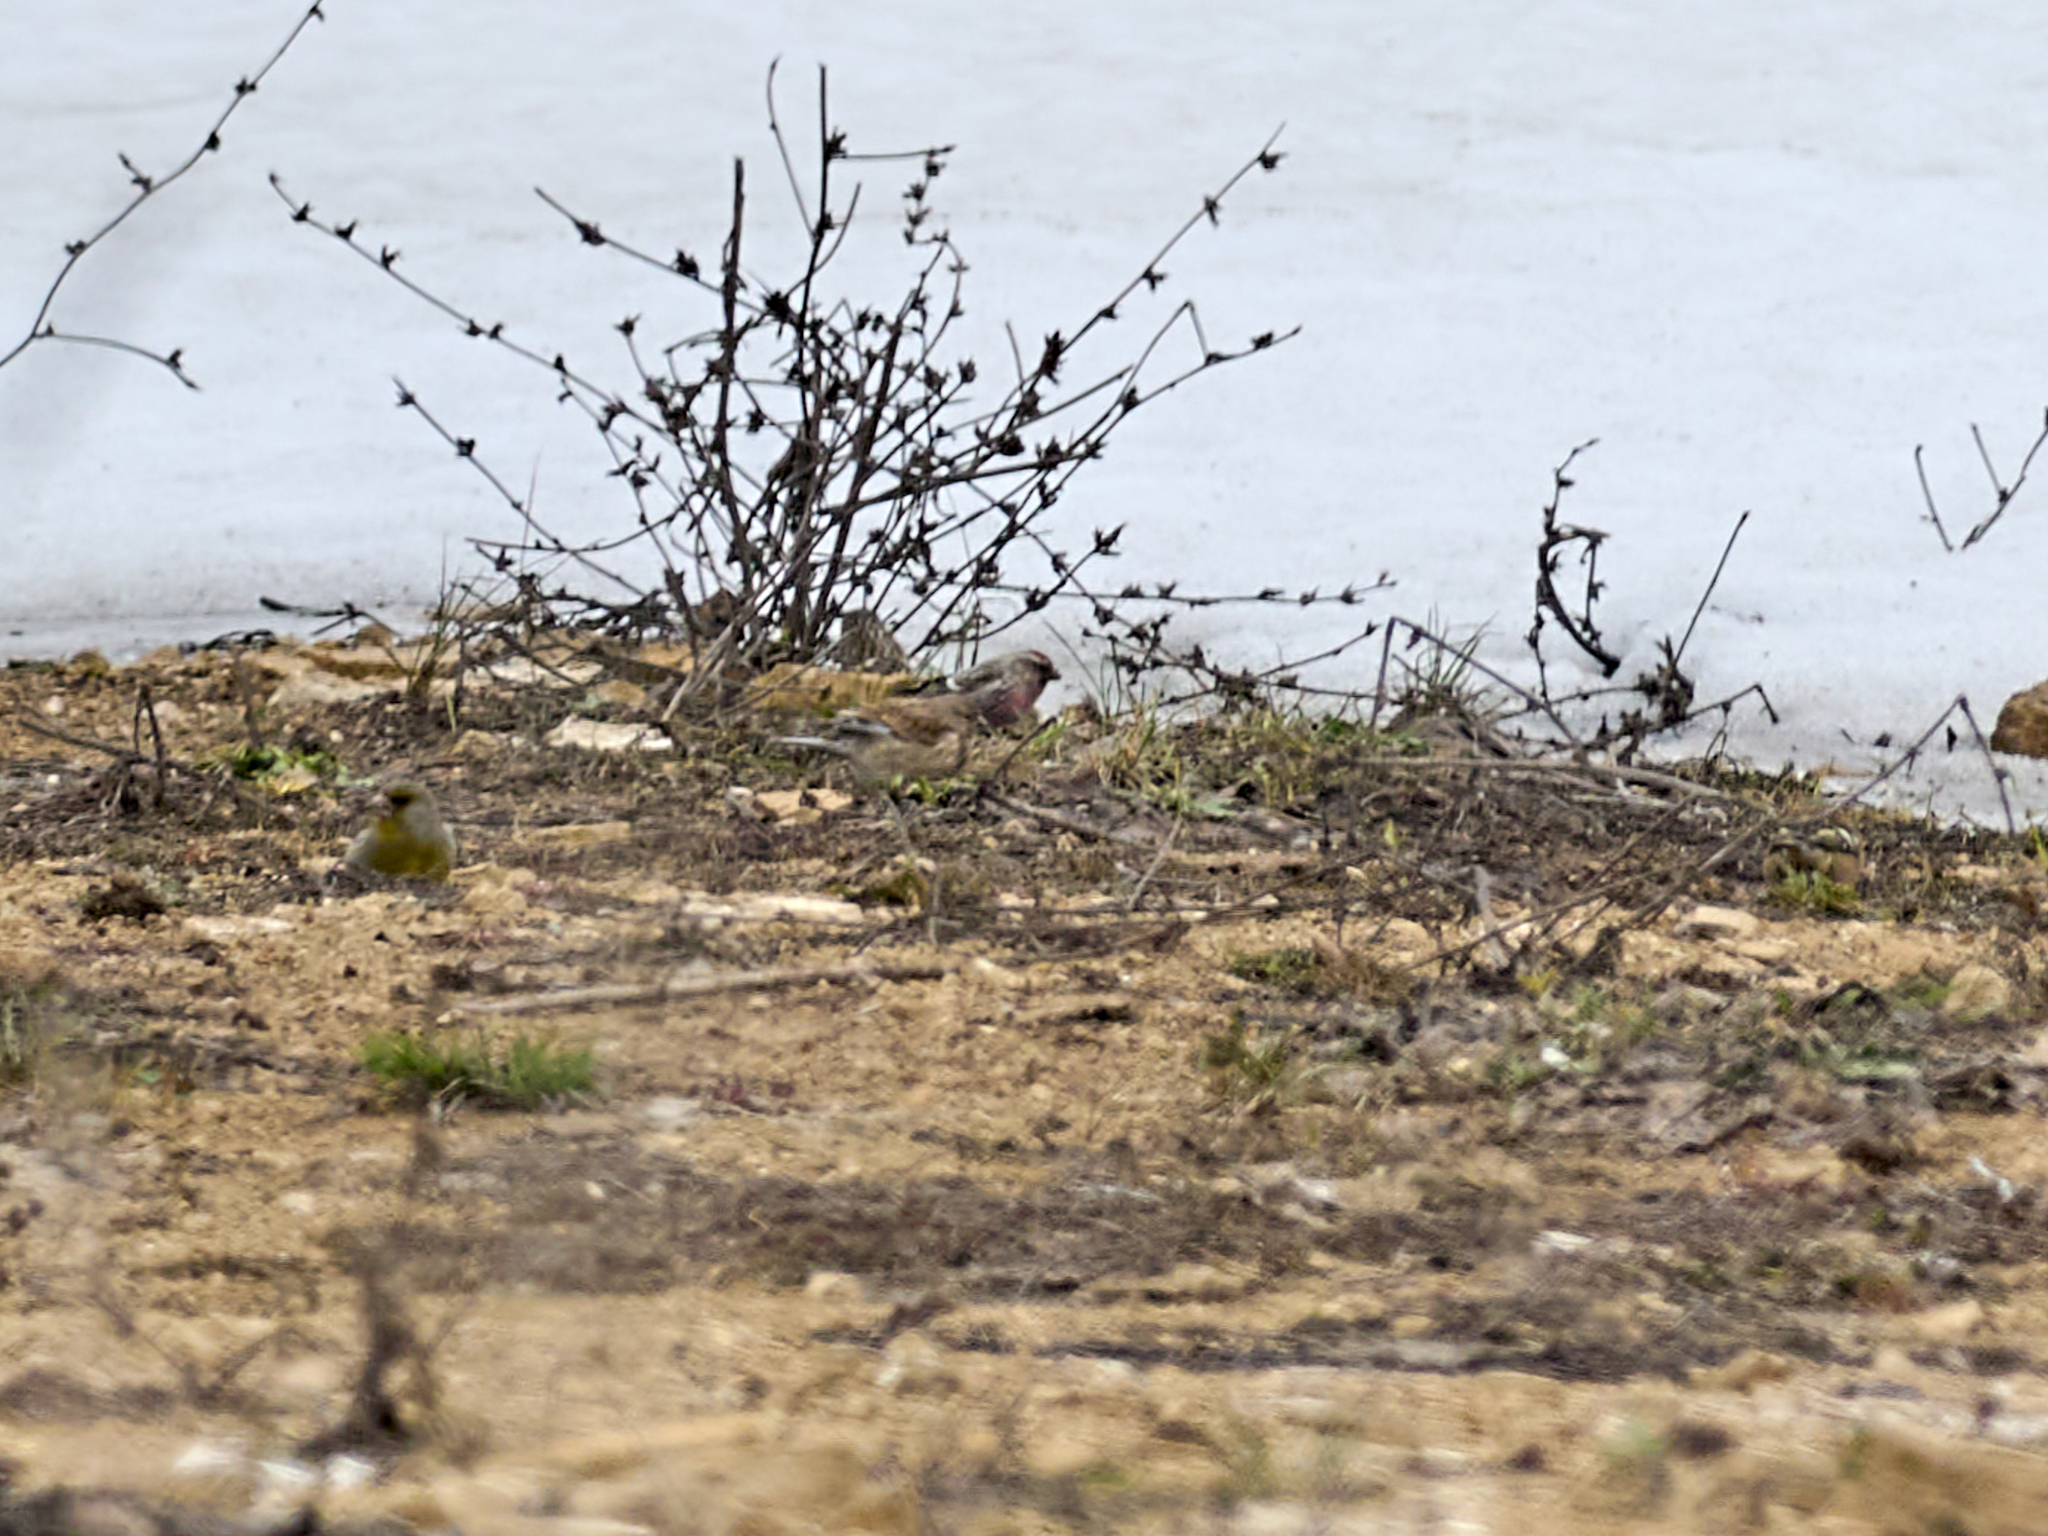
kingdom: Animalia
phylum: Chordata
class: Aves
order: Passeriformes
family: Fringillidae
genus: Acanthis
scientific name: Acanthis flammea
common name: Common redpoll
